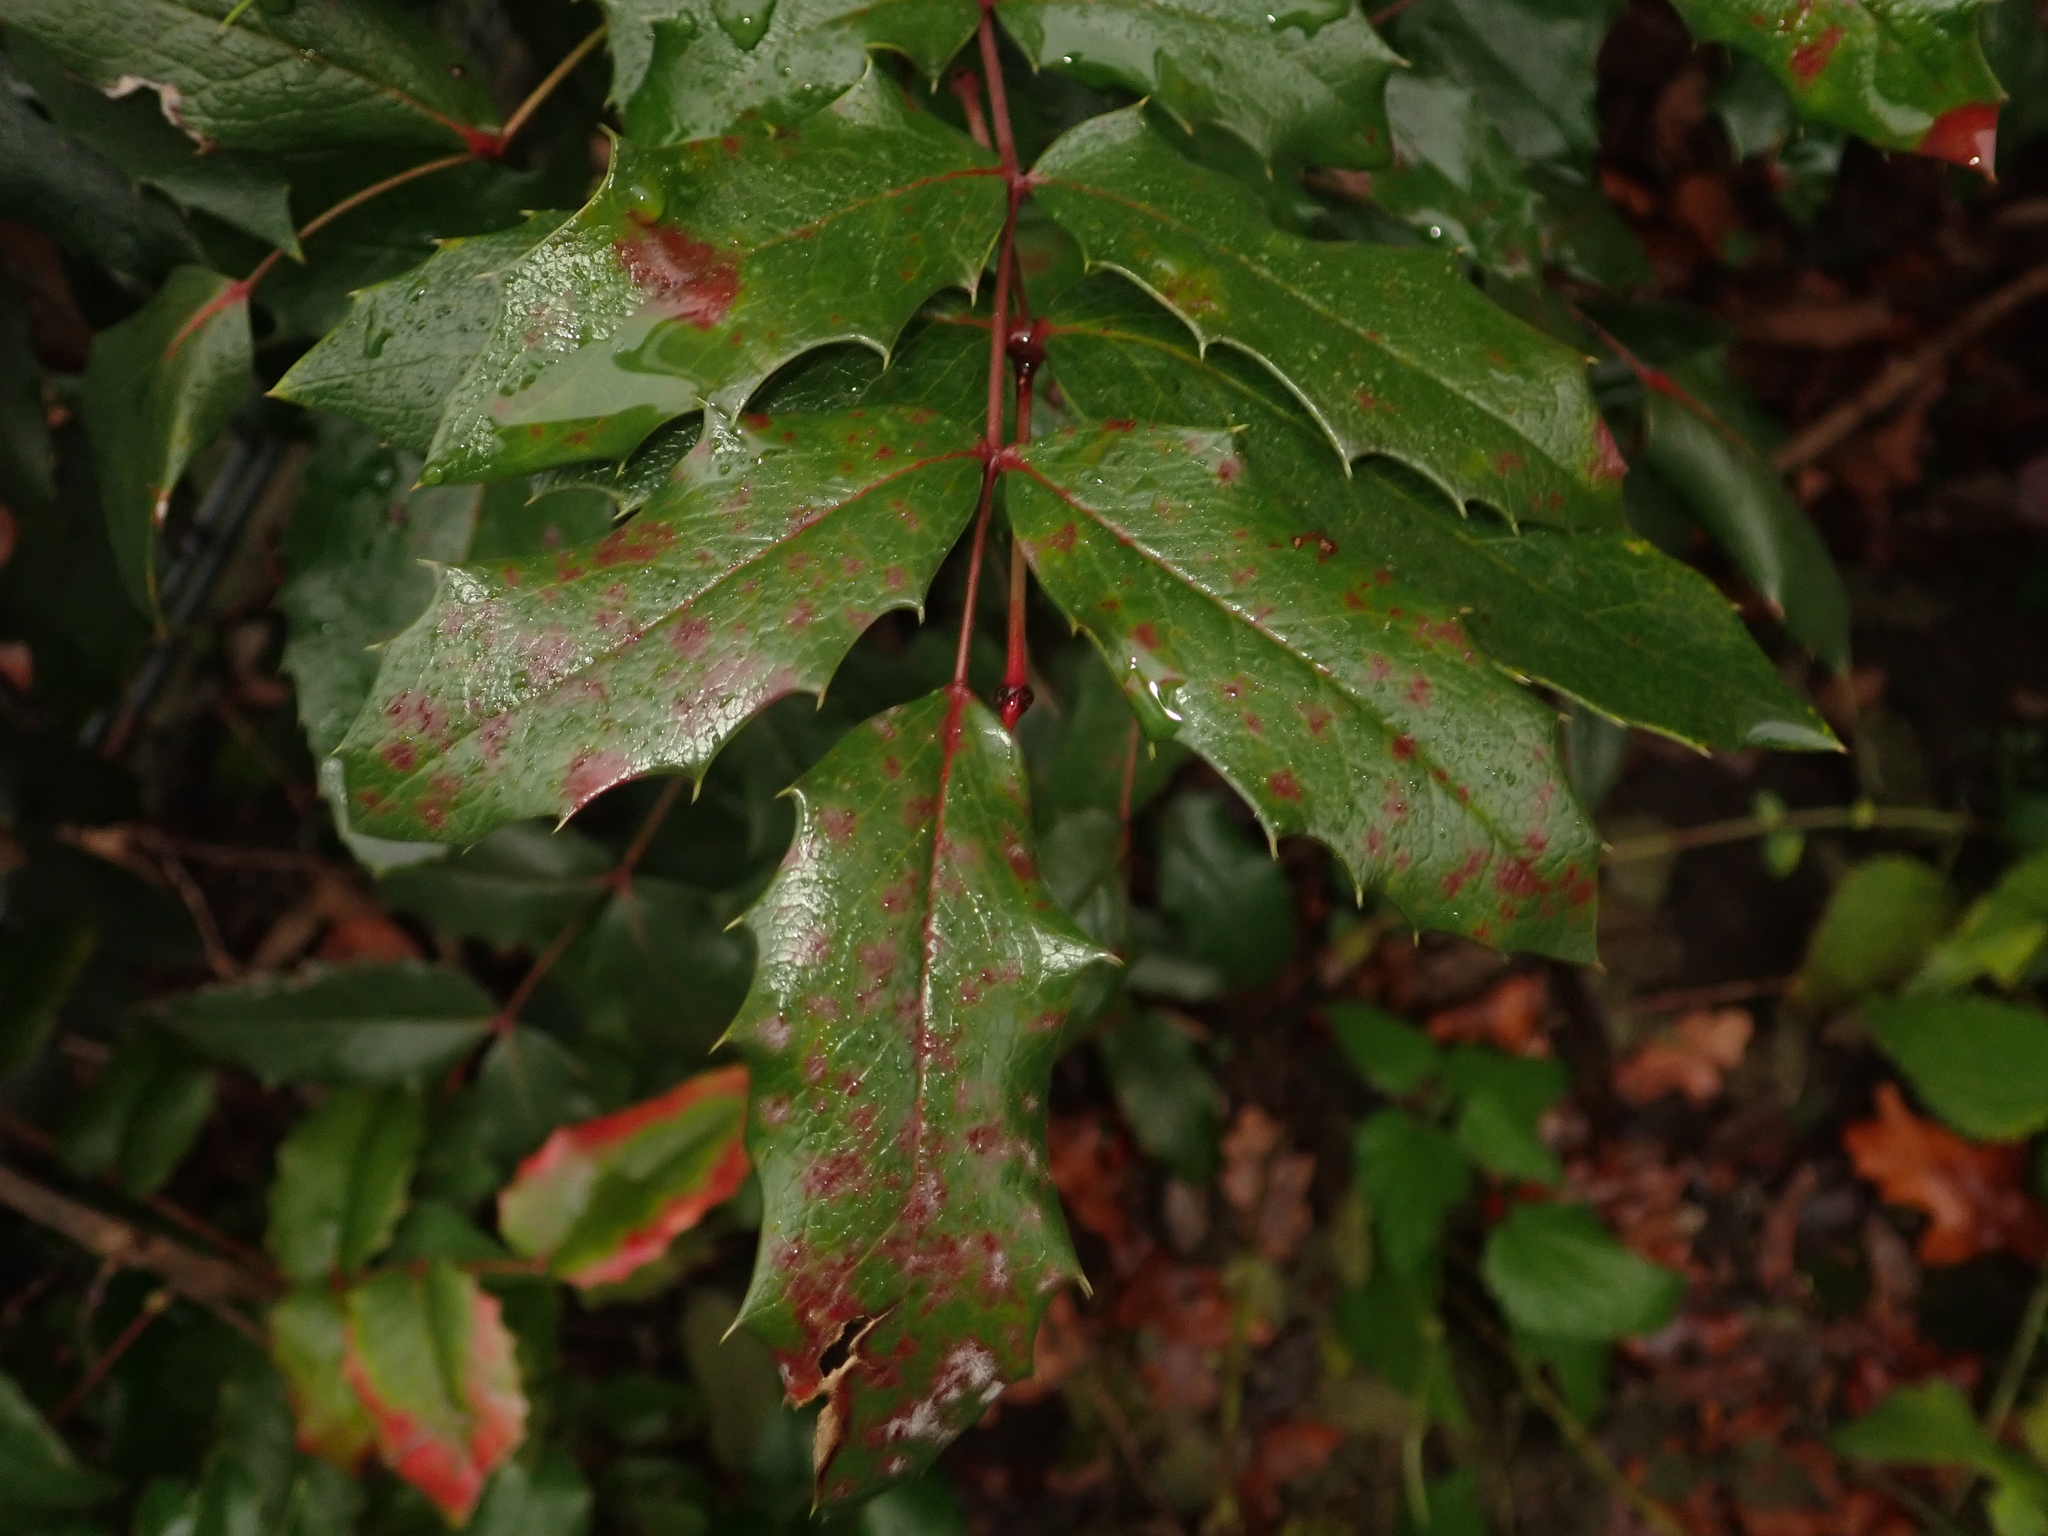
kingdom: Plantae
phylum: Tracheophyta
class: Magnoliopsida
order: Ranunculales
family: Berberidaceae
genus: Mahonia
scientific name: Mahonia aquifolium
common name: Oregon-grape
